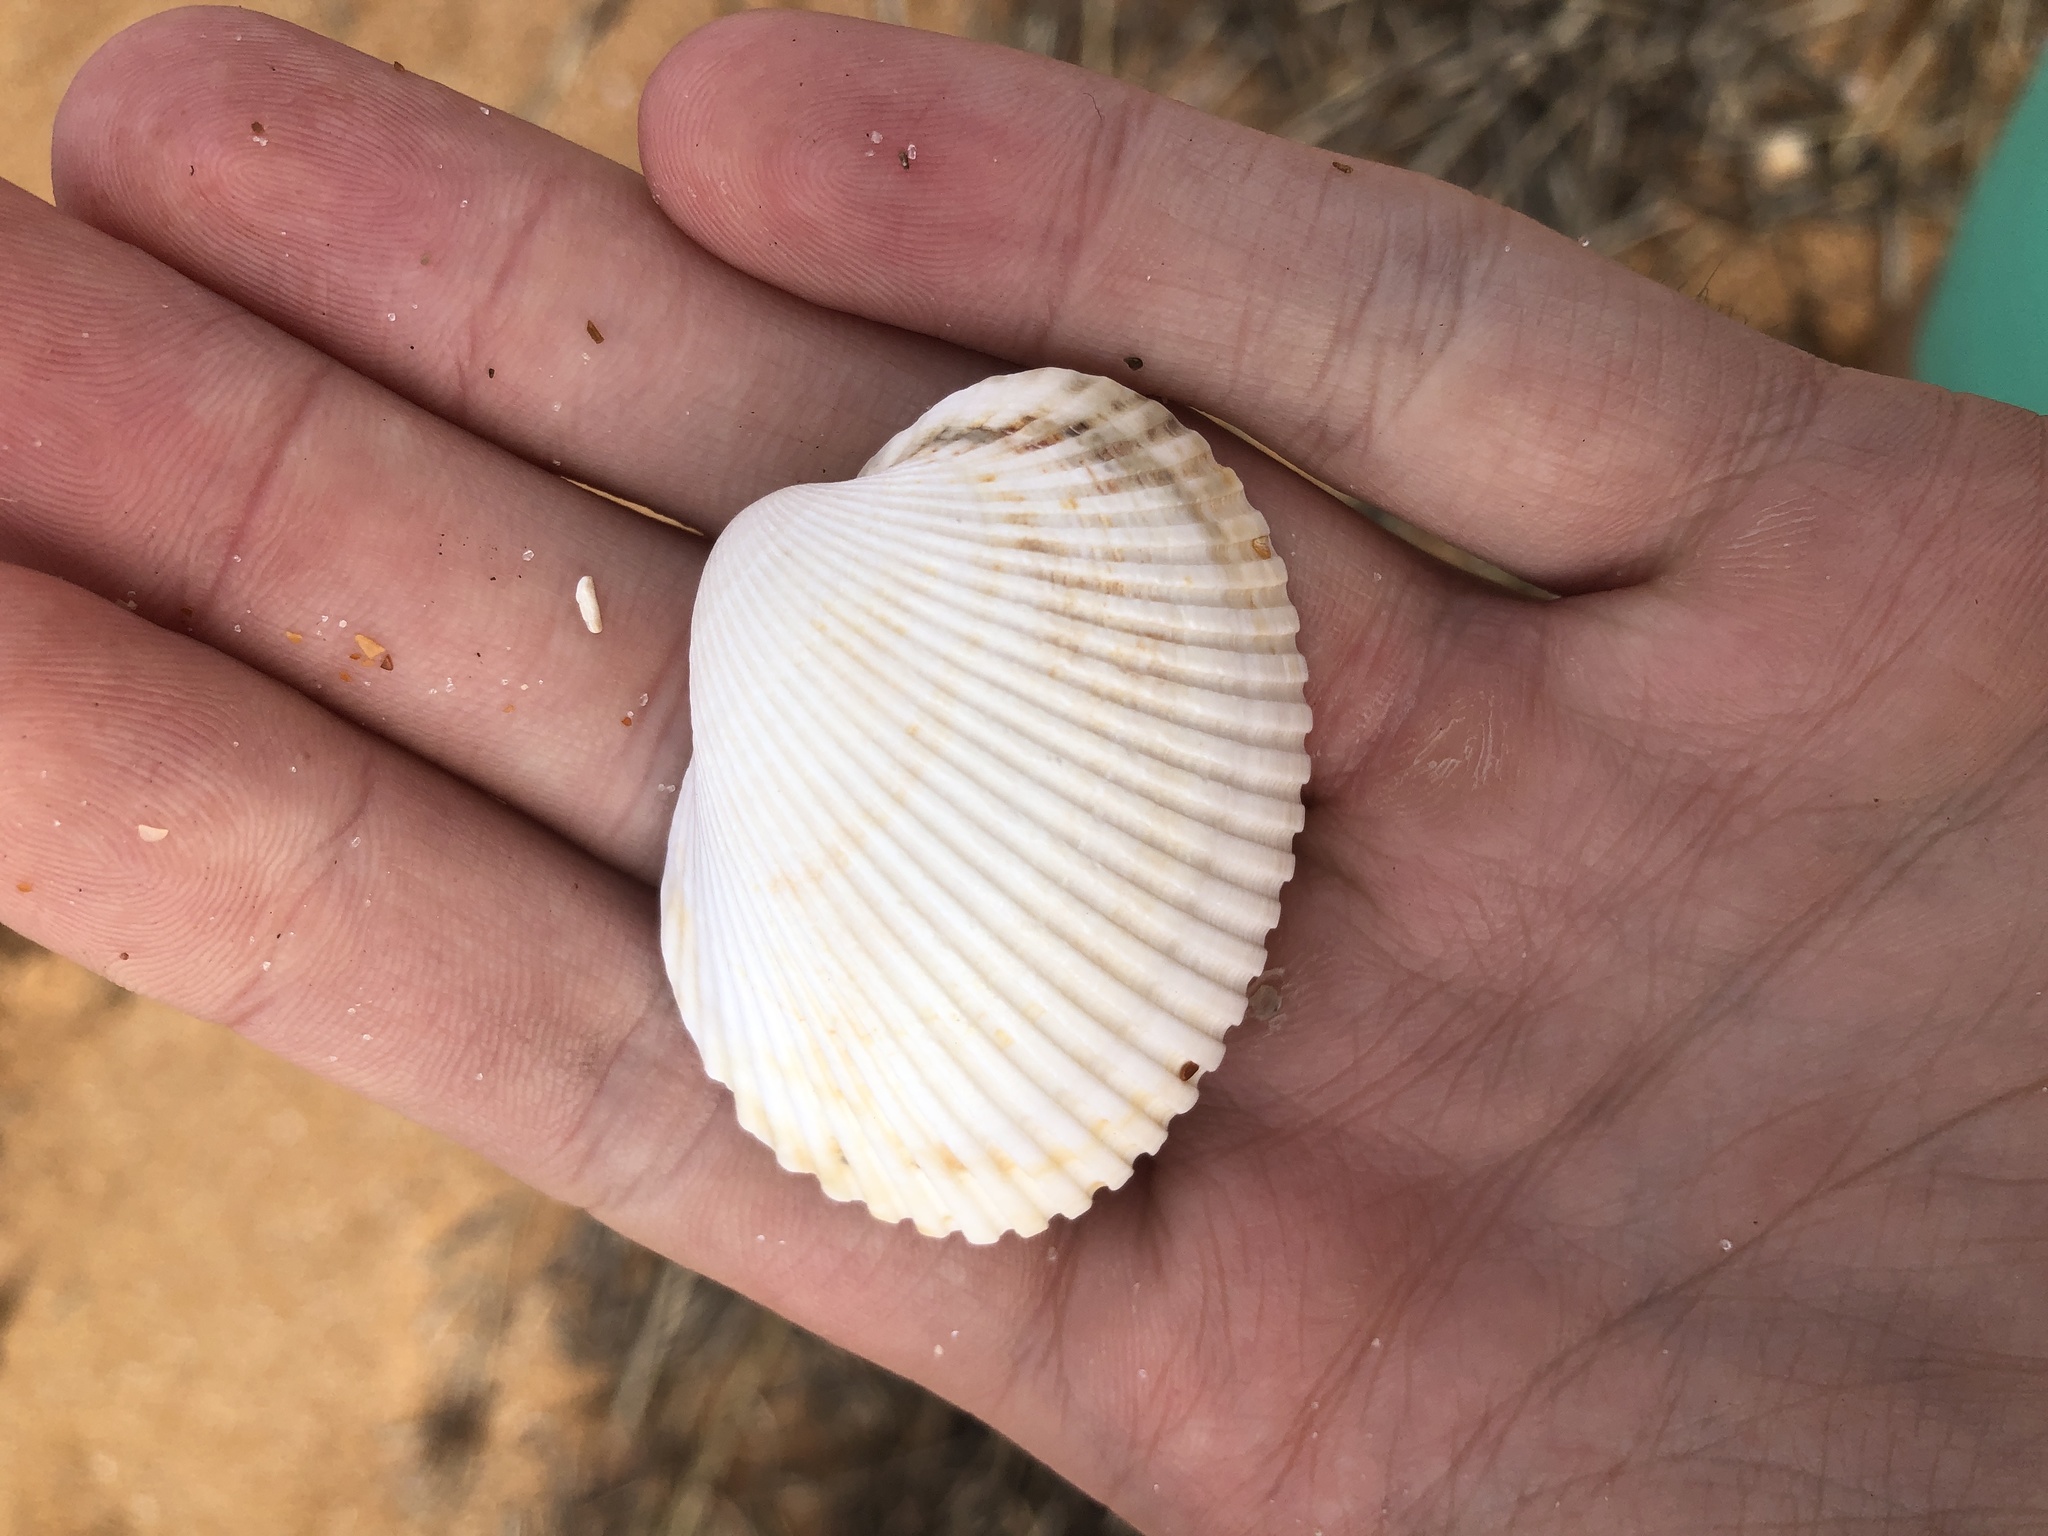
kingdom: Animalia
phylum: Mollusca
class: Bivalvia
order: Arcida
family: Arcidae
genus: Lunarca
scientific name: Lunarca ovalis
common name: Blood ark
